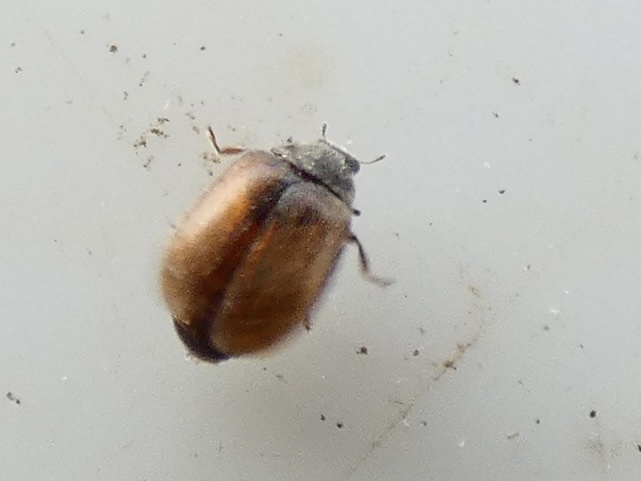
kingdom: Animalia
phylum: Arthropoda
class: Insecta
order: Coleoptera
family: Coccinellidae
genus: Scymnus
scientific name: Scymnus suturalis
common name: Ladybird beetle
